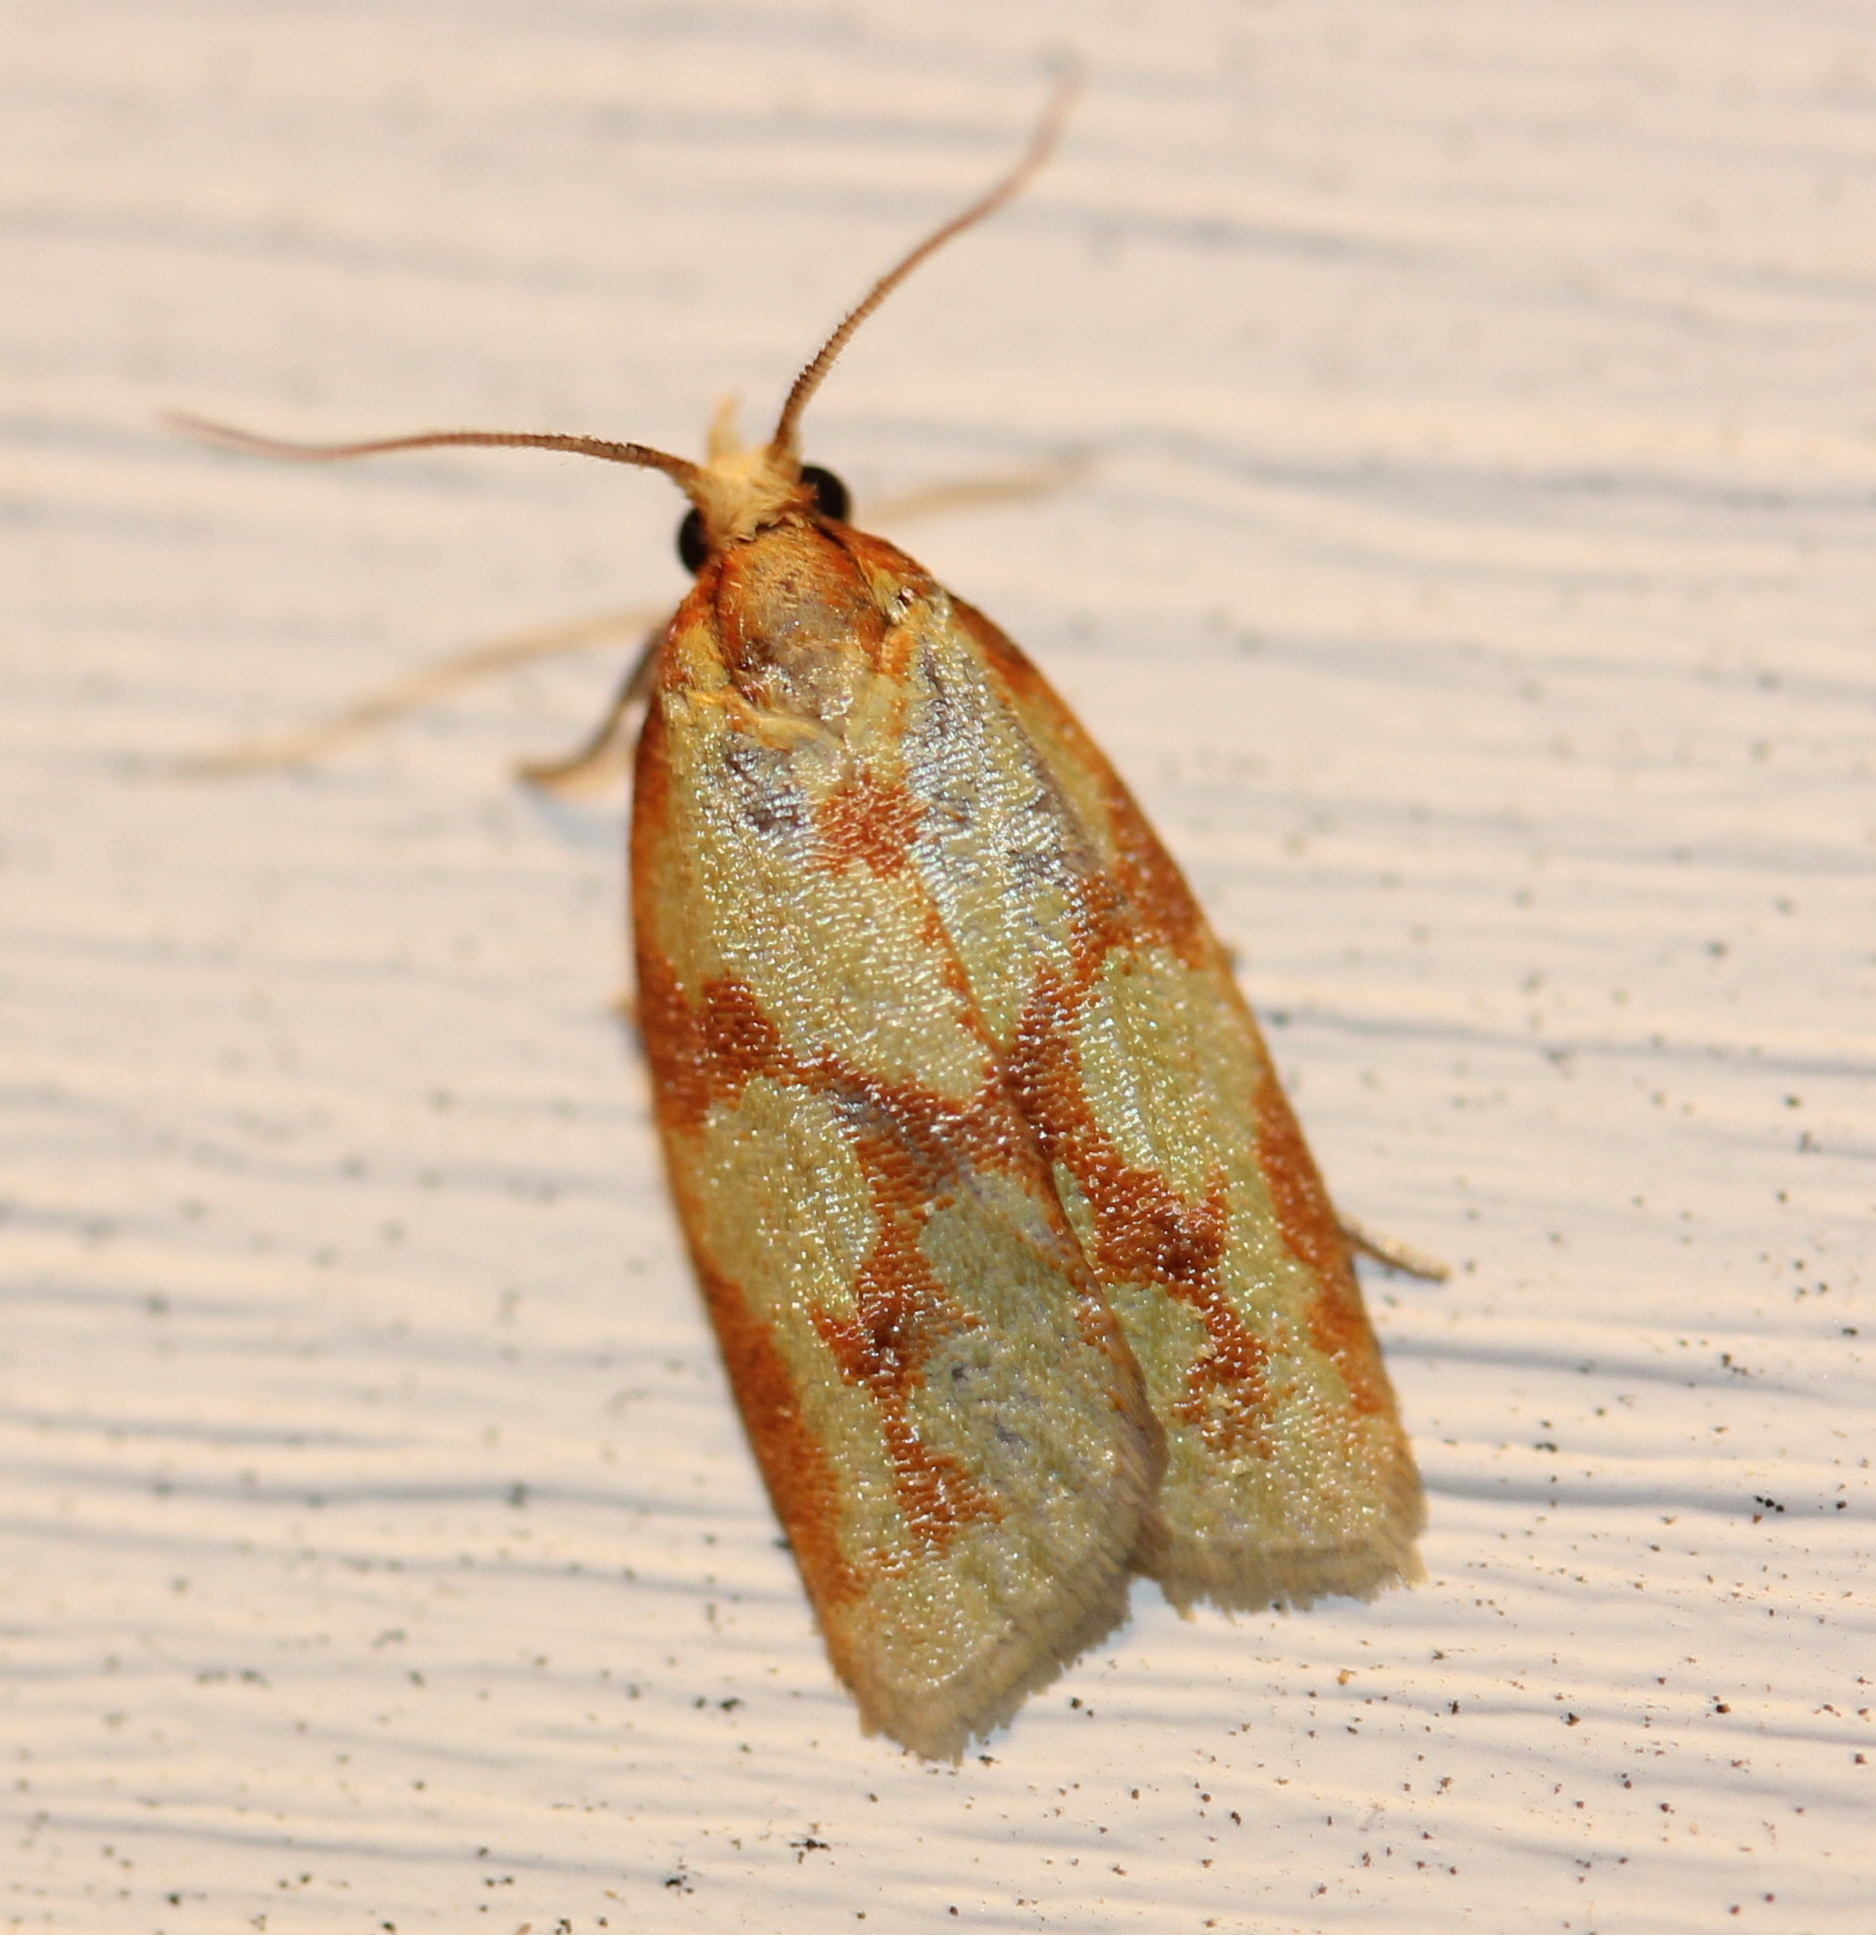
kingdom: Animalia
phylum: Arthropoda
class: Insecta
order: Lepidoptera
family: Tortricidae
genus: Sparganothis
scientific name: Sparganothis sulfureana
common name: Sparganothis fruitworm moth
